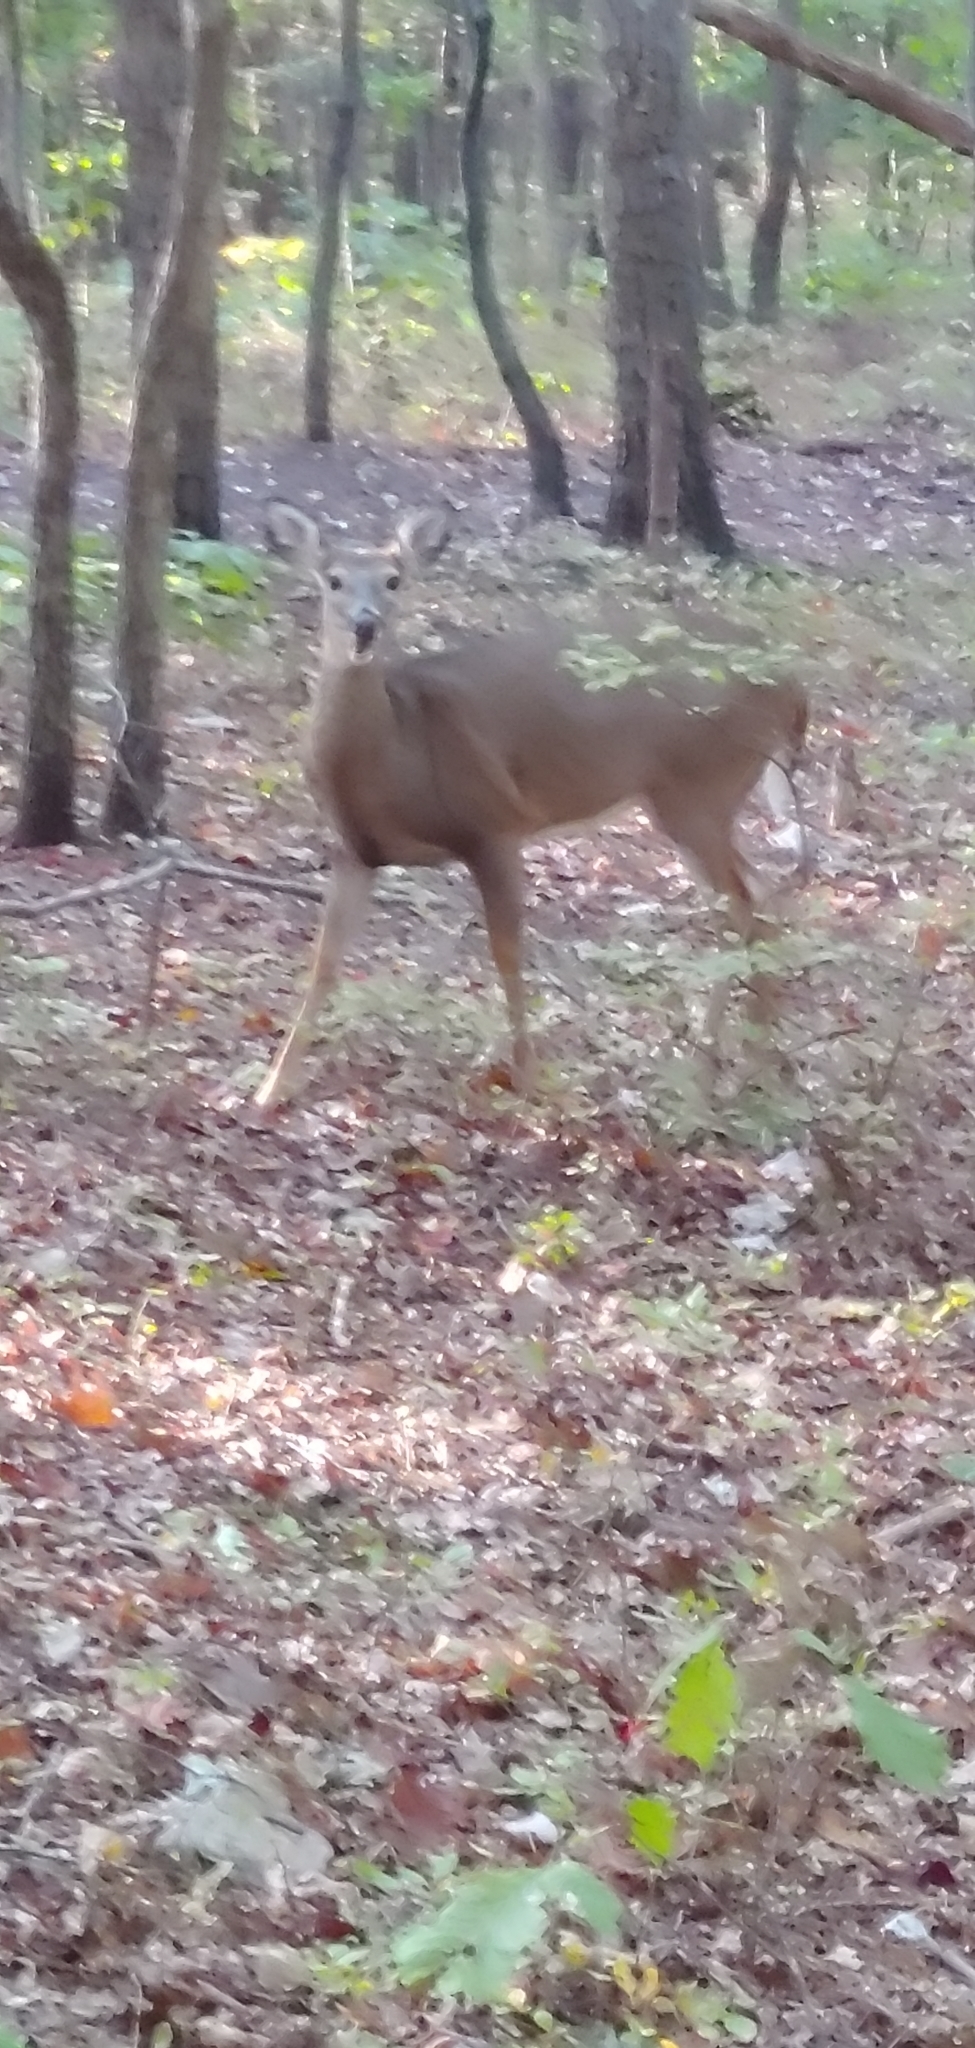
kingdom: Animalia
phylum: Chordata
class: Mammalia
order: Artiodactyla
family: Cervidae
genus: Odocoileus
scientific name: Odocoileus virginianus
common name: White-tailed deer
